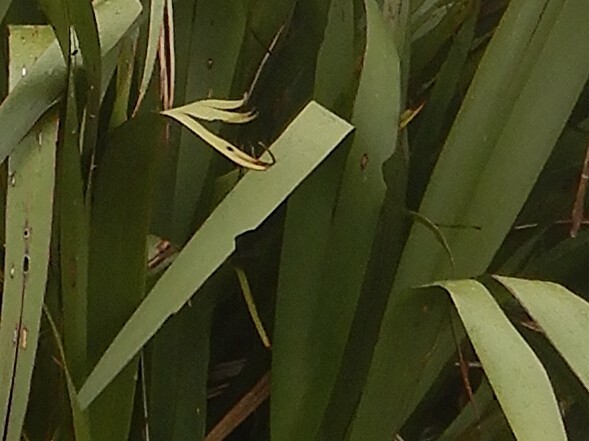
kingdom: Animalia
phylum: Arthropoda
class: Insecta
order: Lepidoptera
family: Noctuidae
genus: Ichneutica
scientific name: Ichneutica
